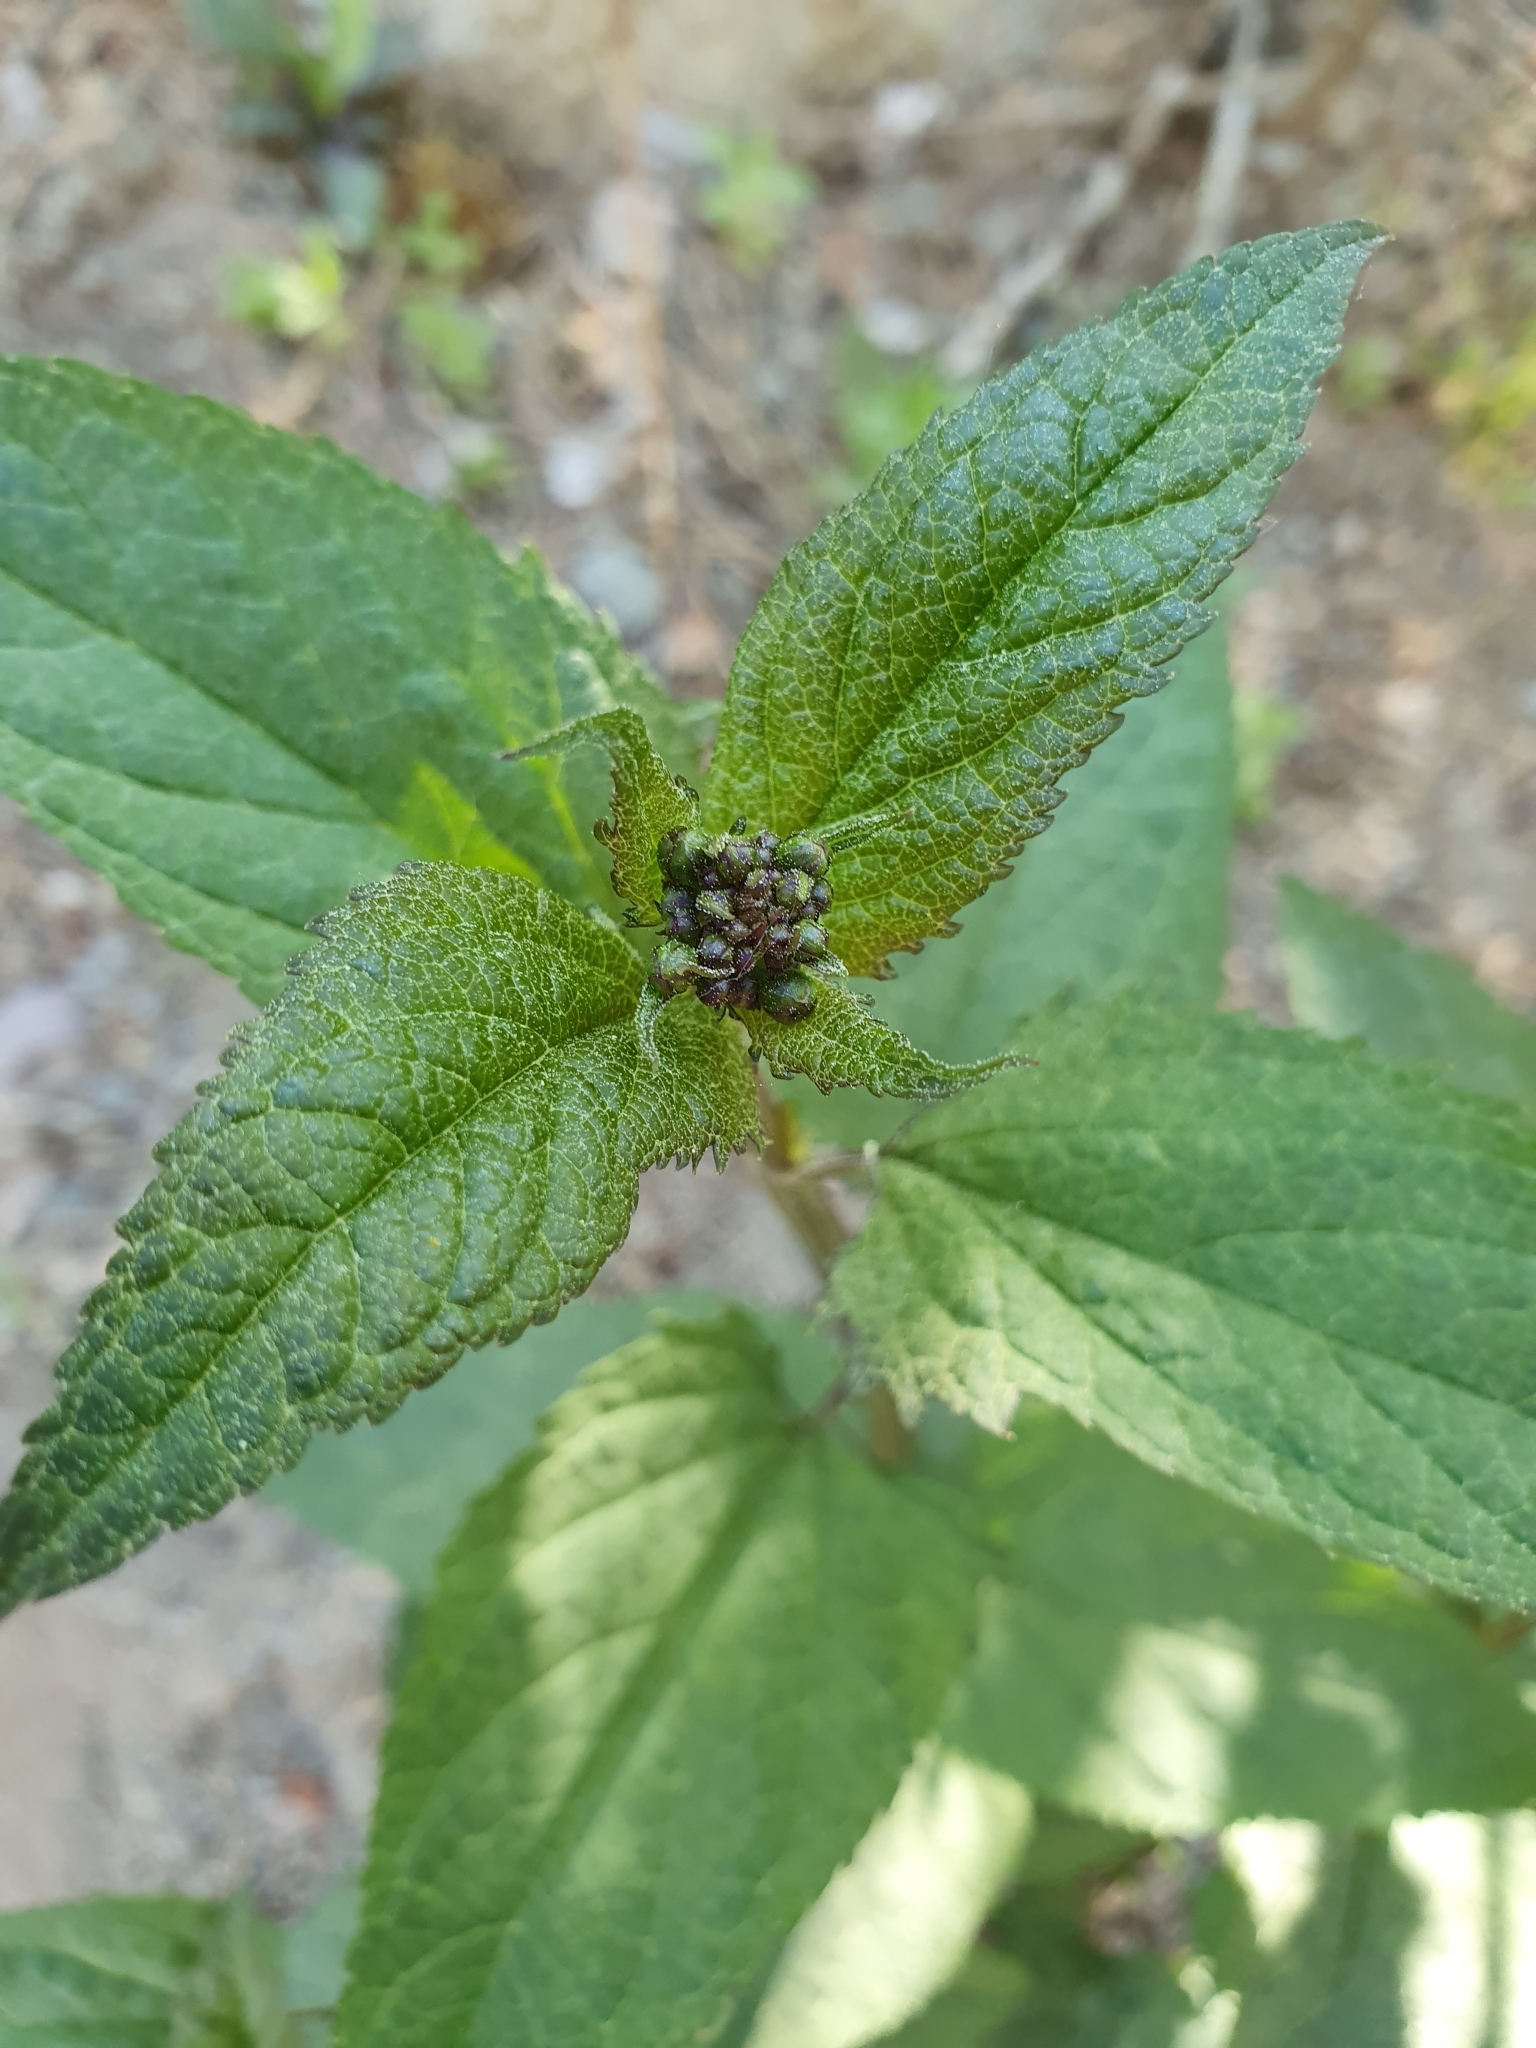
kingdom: Plantae
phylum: Tracheophyta
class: Magnoliopsida
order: Lamiales
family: Scrophulariaceae
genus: Scrophularia
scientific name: Scrophularia nodosa
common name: Common figwort
